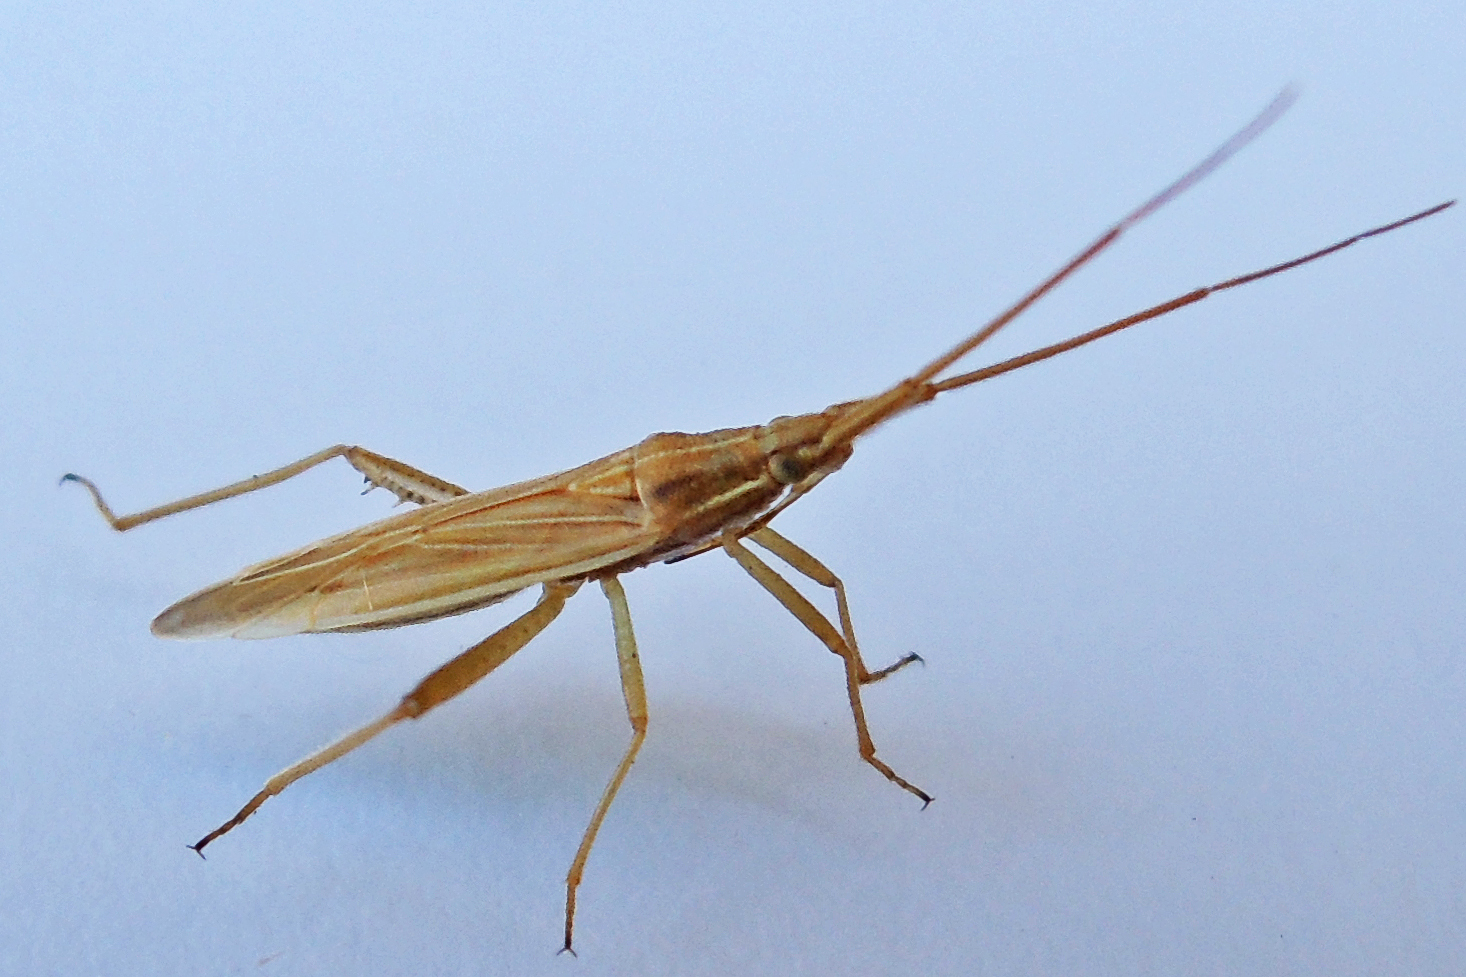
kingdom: Animalia
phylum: Arthropoda
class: Insecta
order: Hemiptera
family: Miridae
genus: Stenodema
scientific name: Stenodema trispinosa
